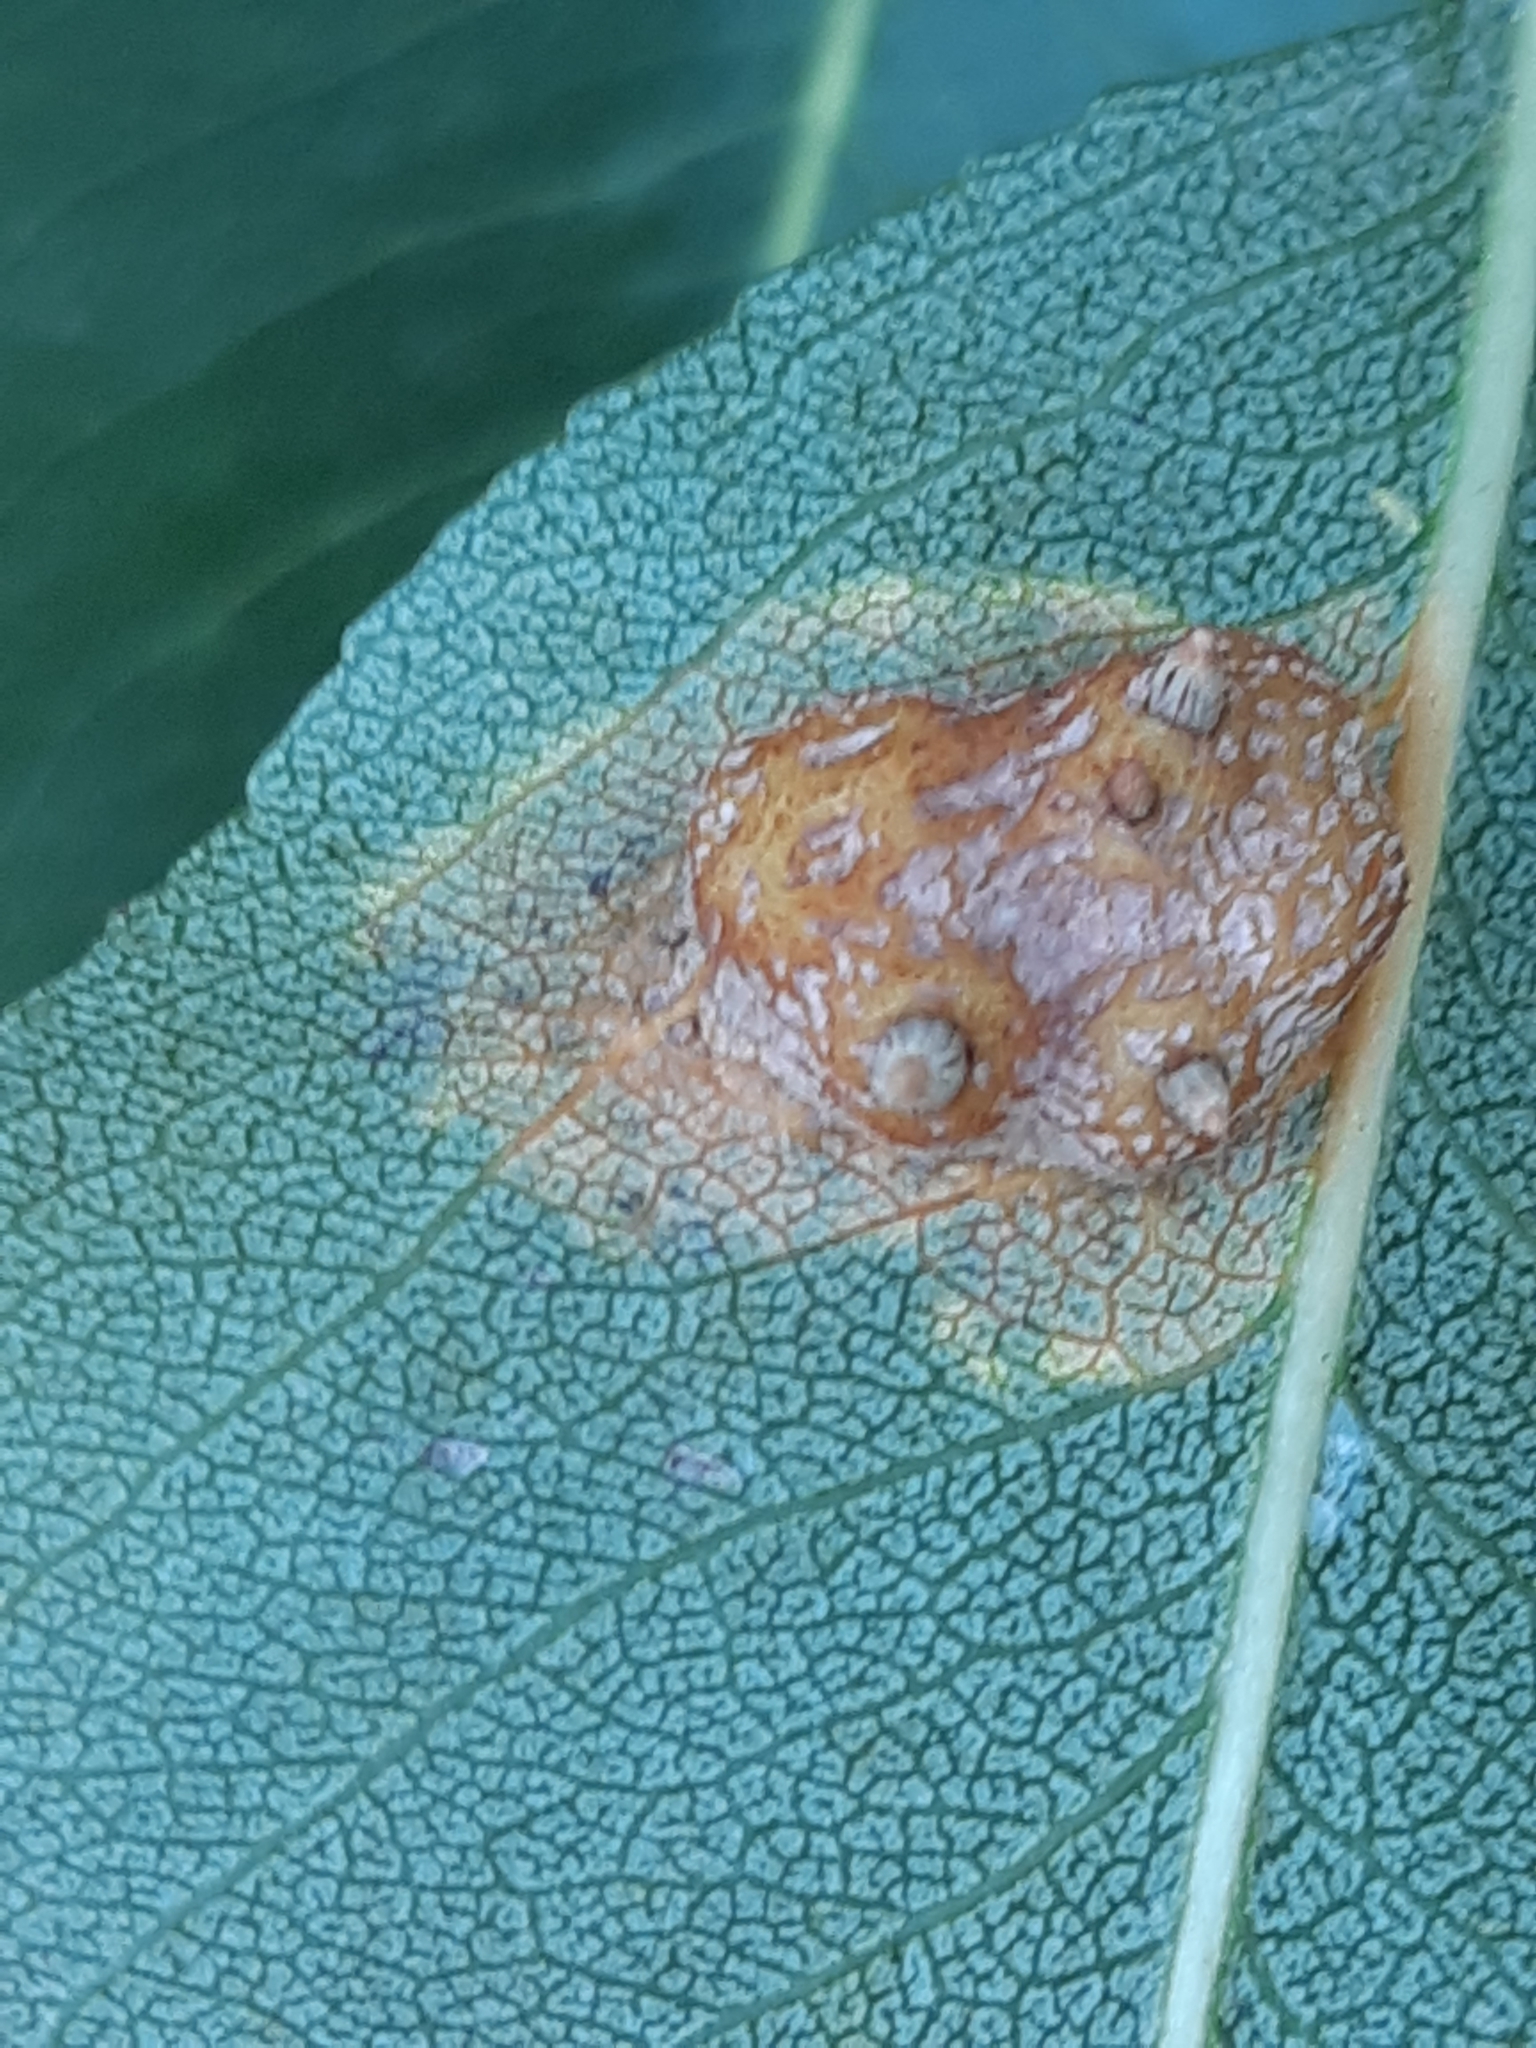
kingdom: Fungi
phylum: Basidiomycota
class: Pucciniomycetes
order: Pucciniales
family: Gymnosporangiaceae
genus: Gymnosporangium
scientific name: Gymnosporangium sabinae
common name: Pear trellis rust fungus
